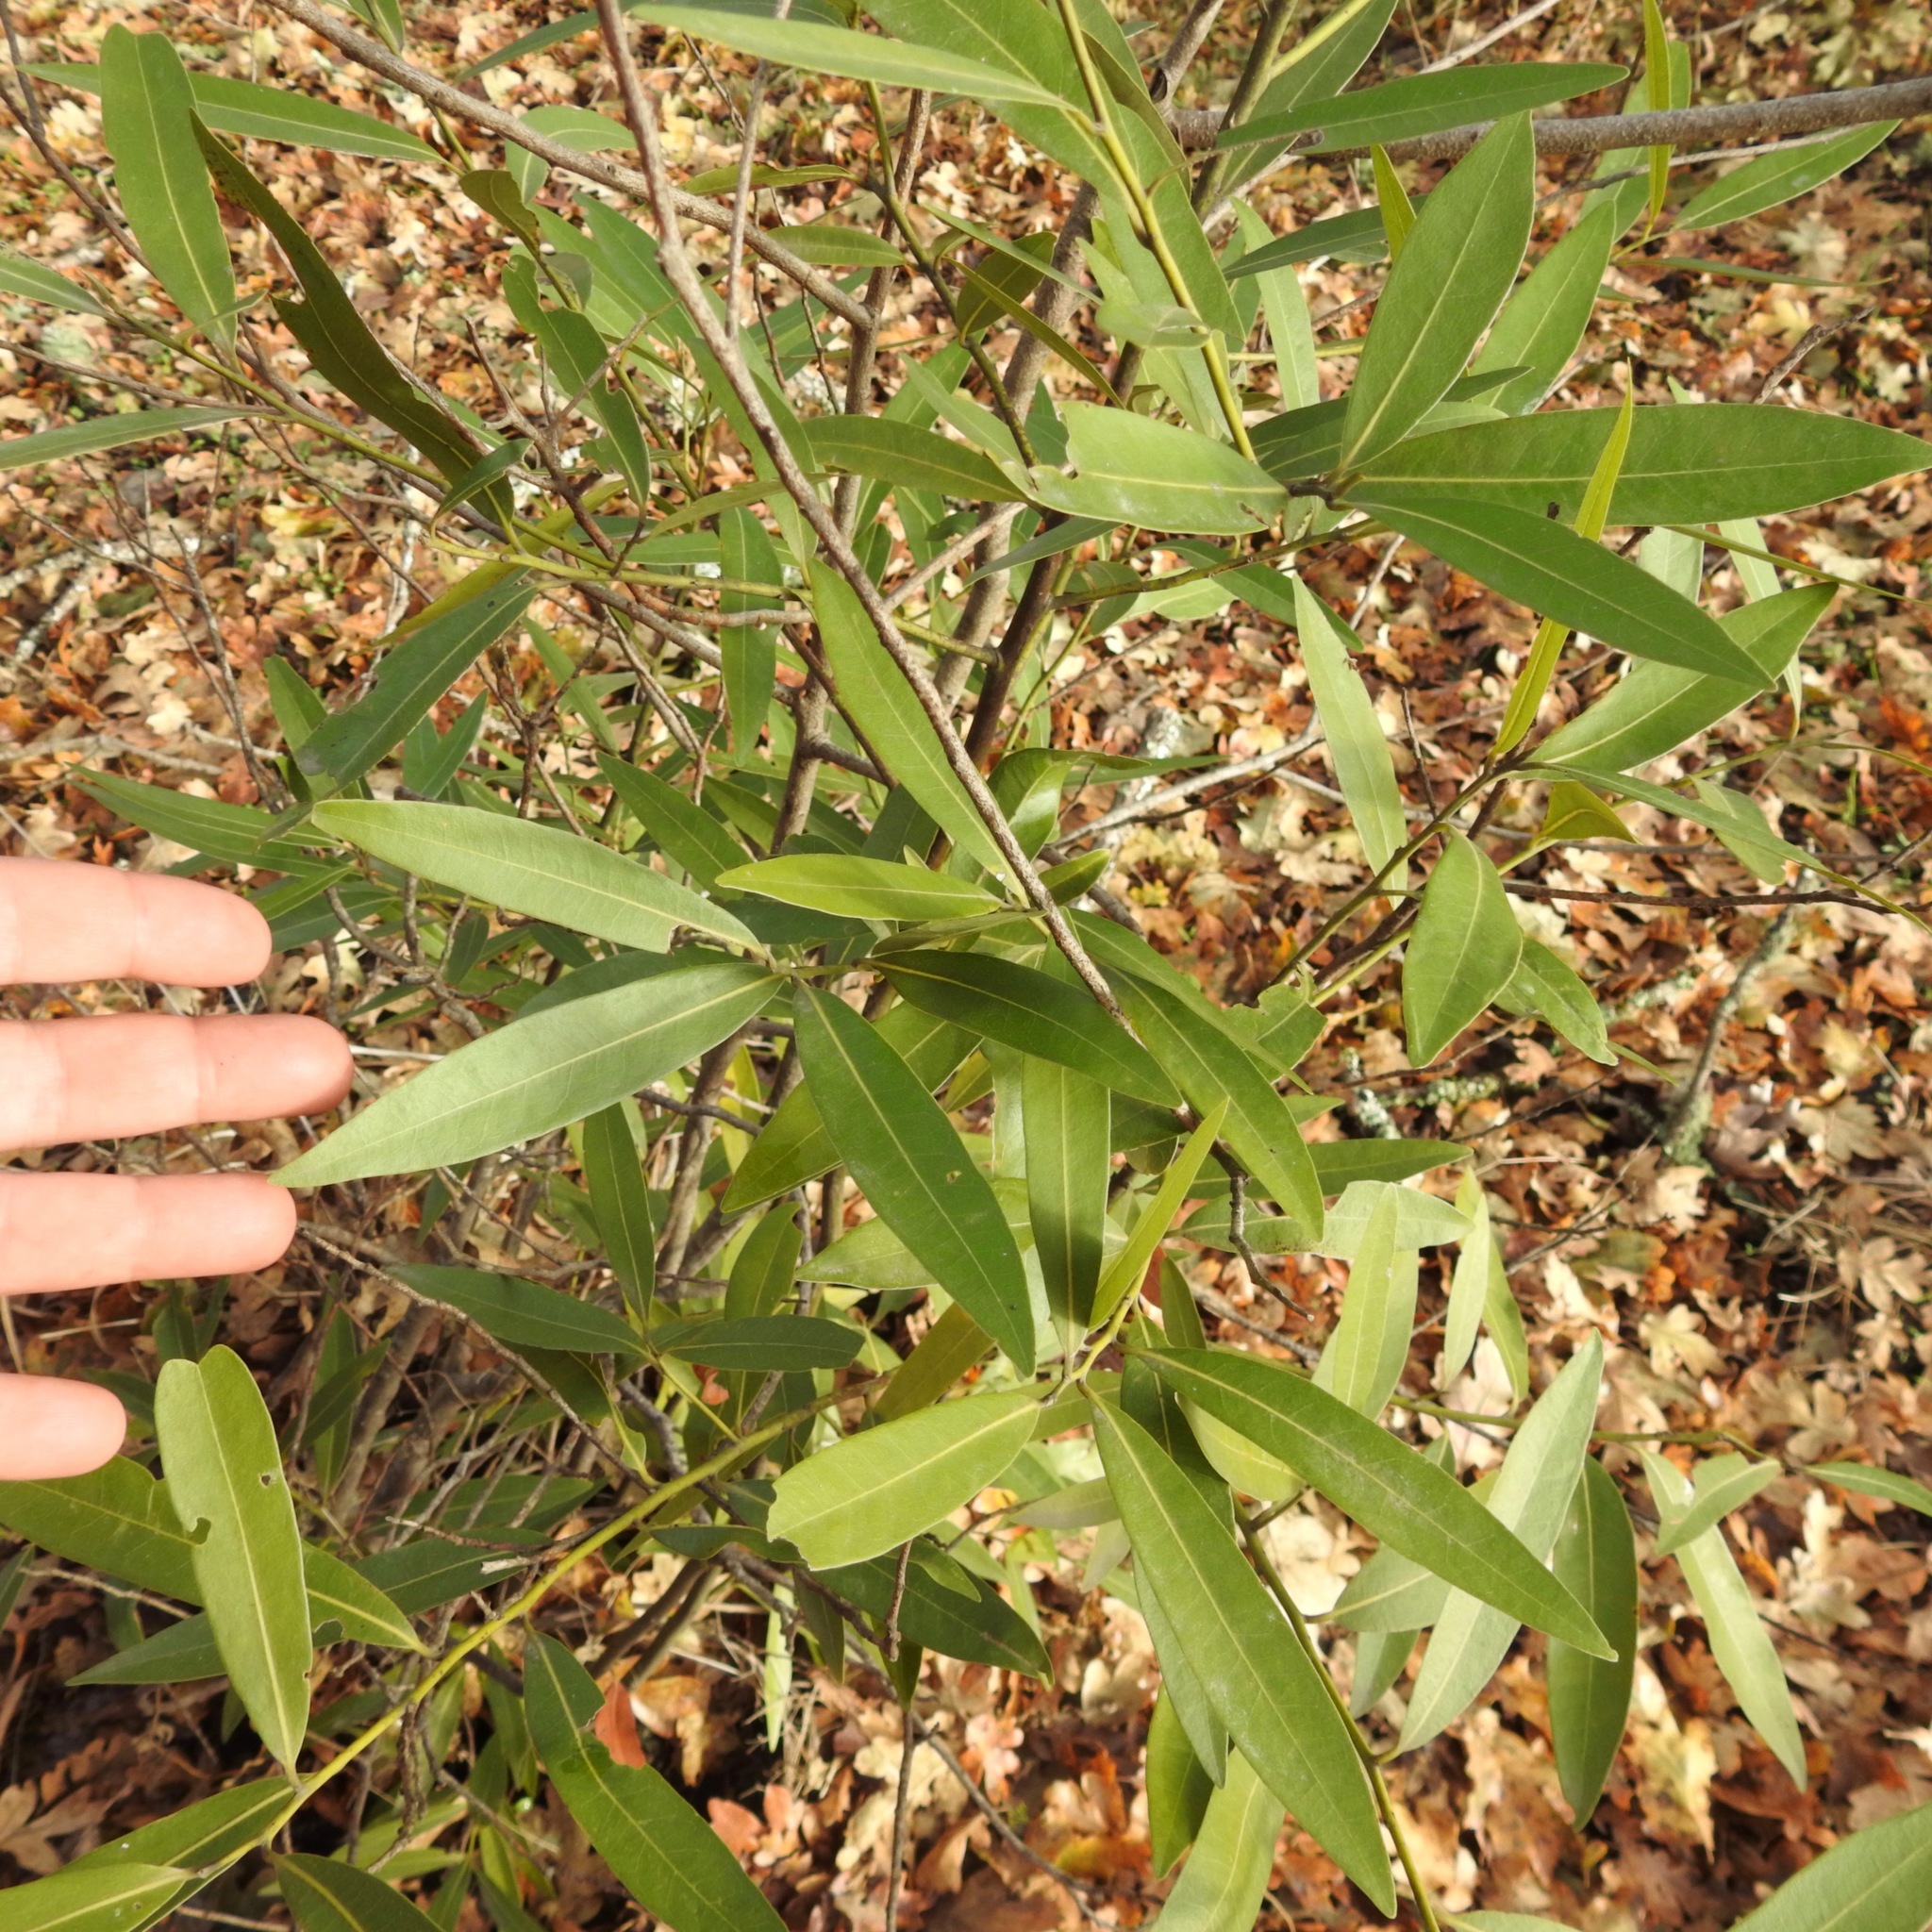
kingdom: Plantae
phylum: Tracheophyta
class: Magnoliopsida
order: Laurales
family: Lauraceae
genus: Umbellularia
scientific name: Umbellularia californica
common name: California bay
